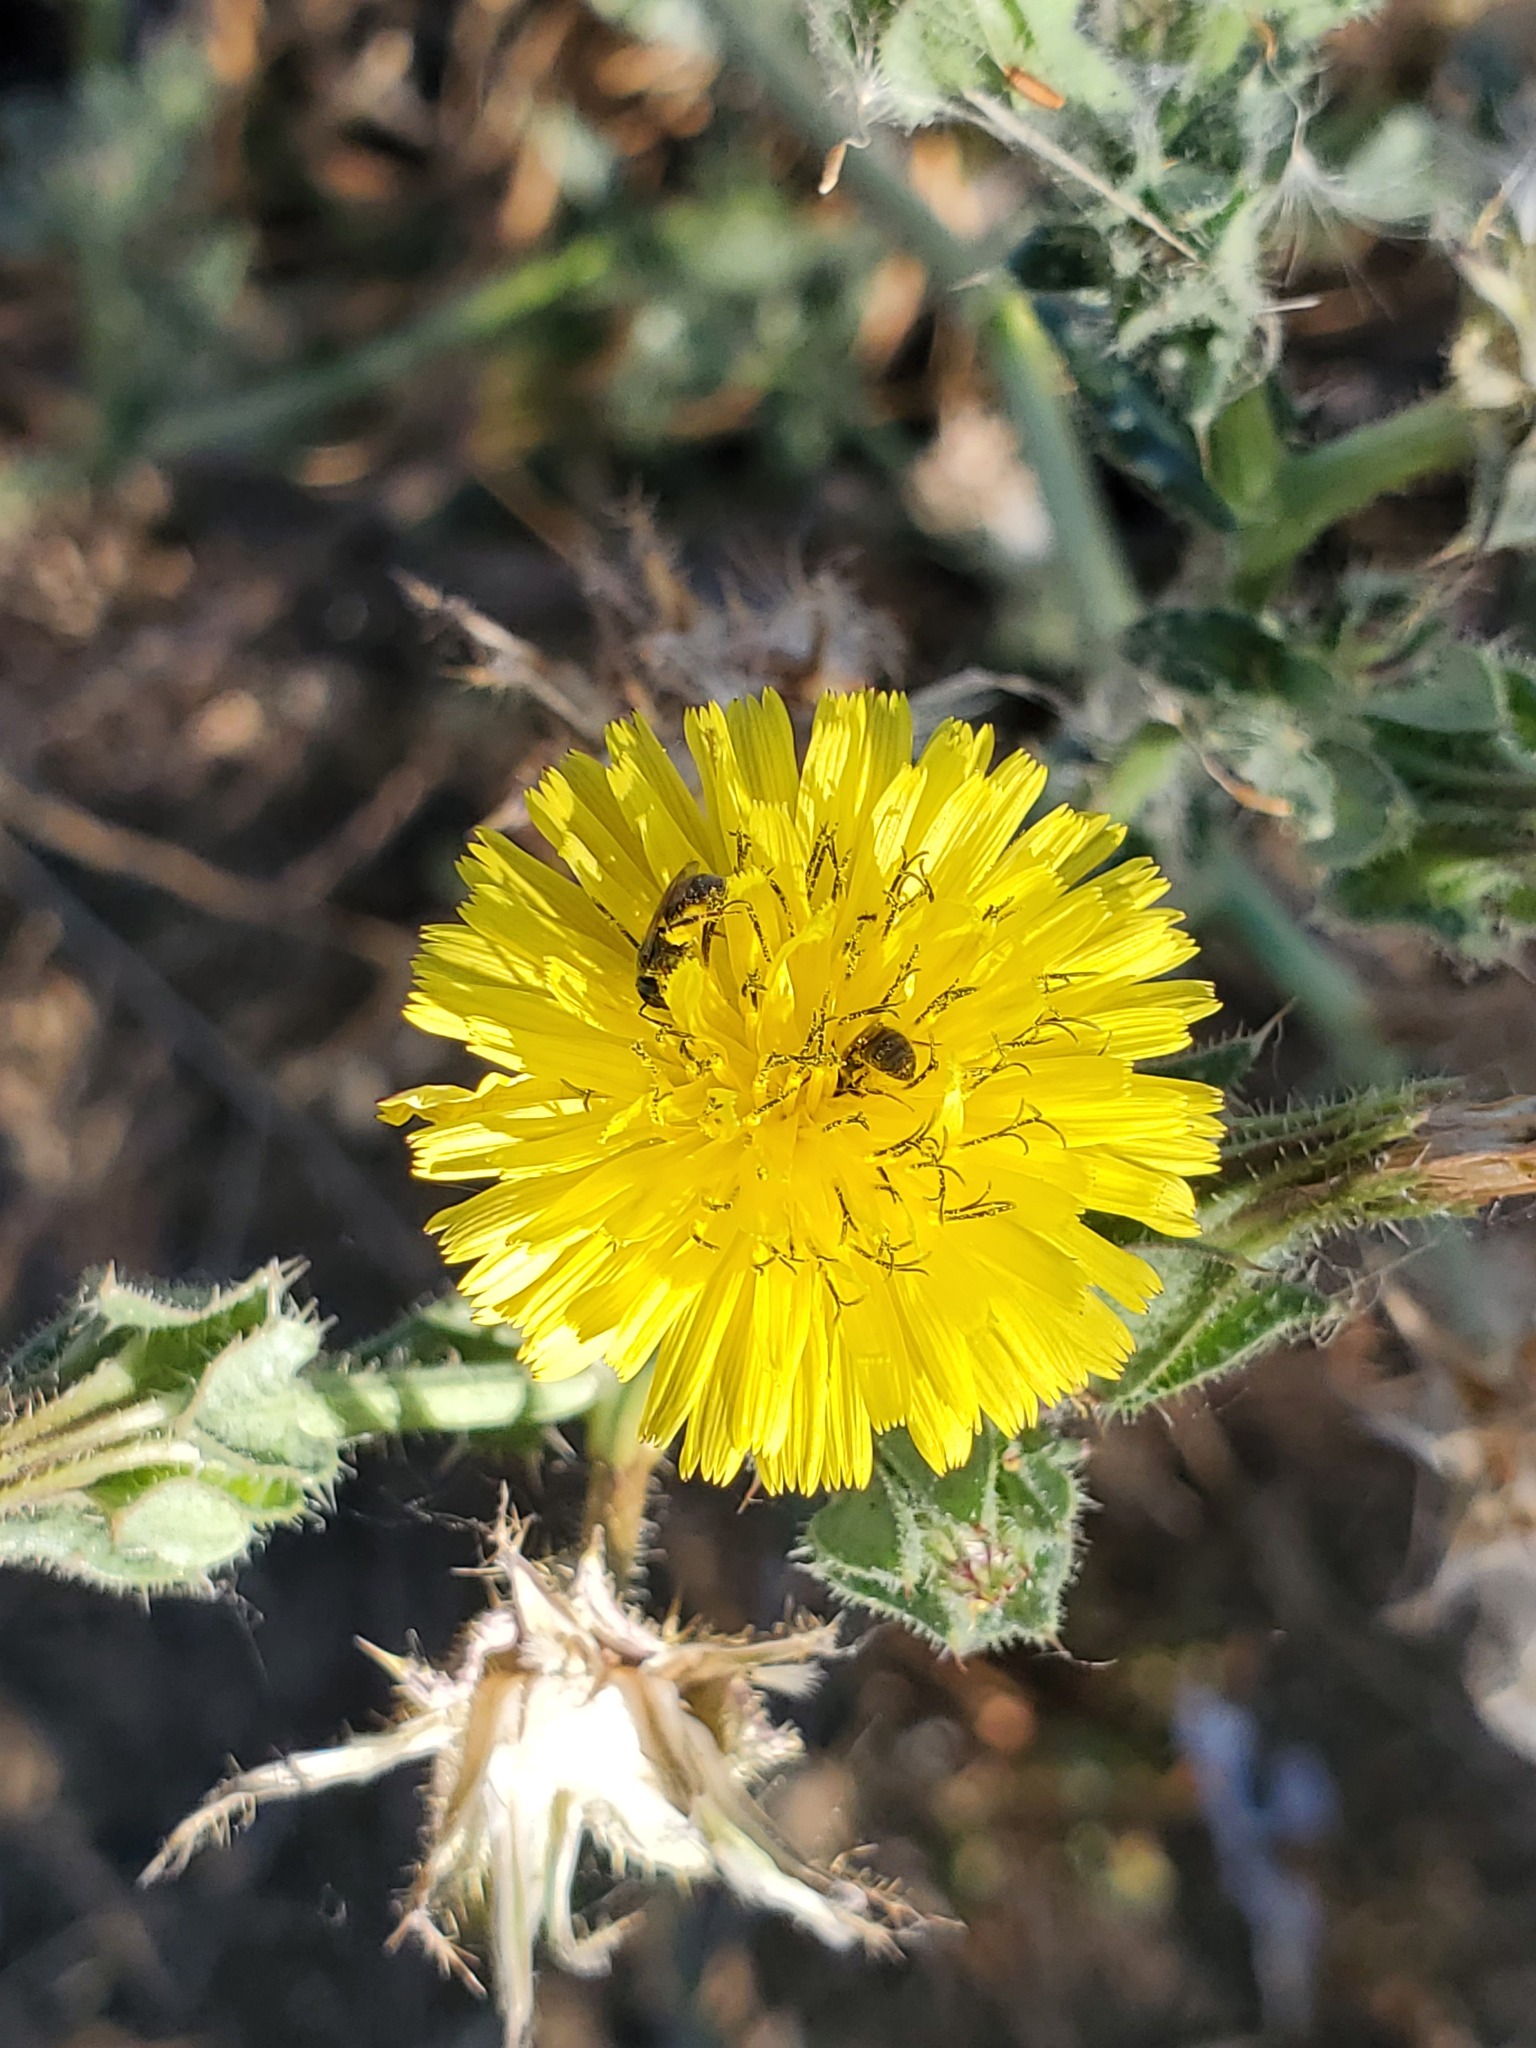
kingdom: Plantae
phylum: Tracheophyta
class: Magnoliopsida
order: Asterales
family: Asteraceae
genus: Helminthotheca
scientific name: Helminthotheca echioides
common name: Ox-tongue
